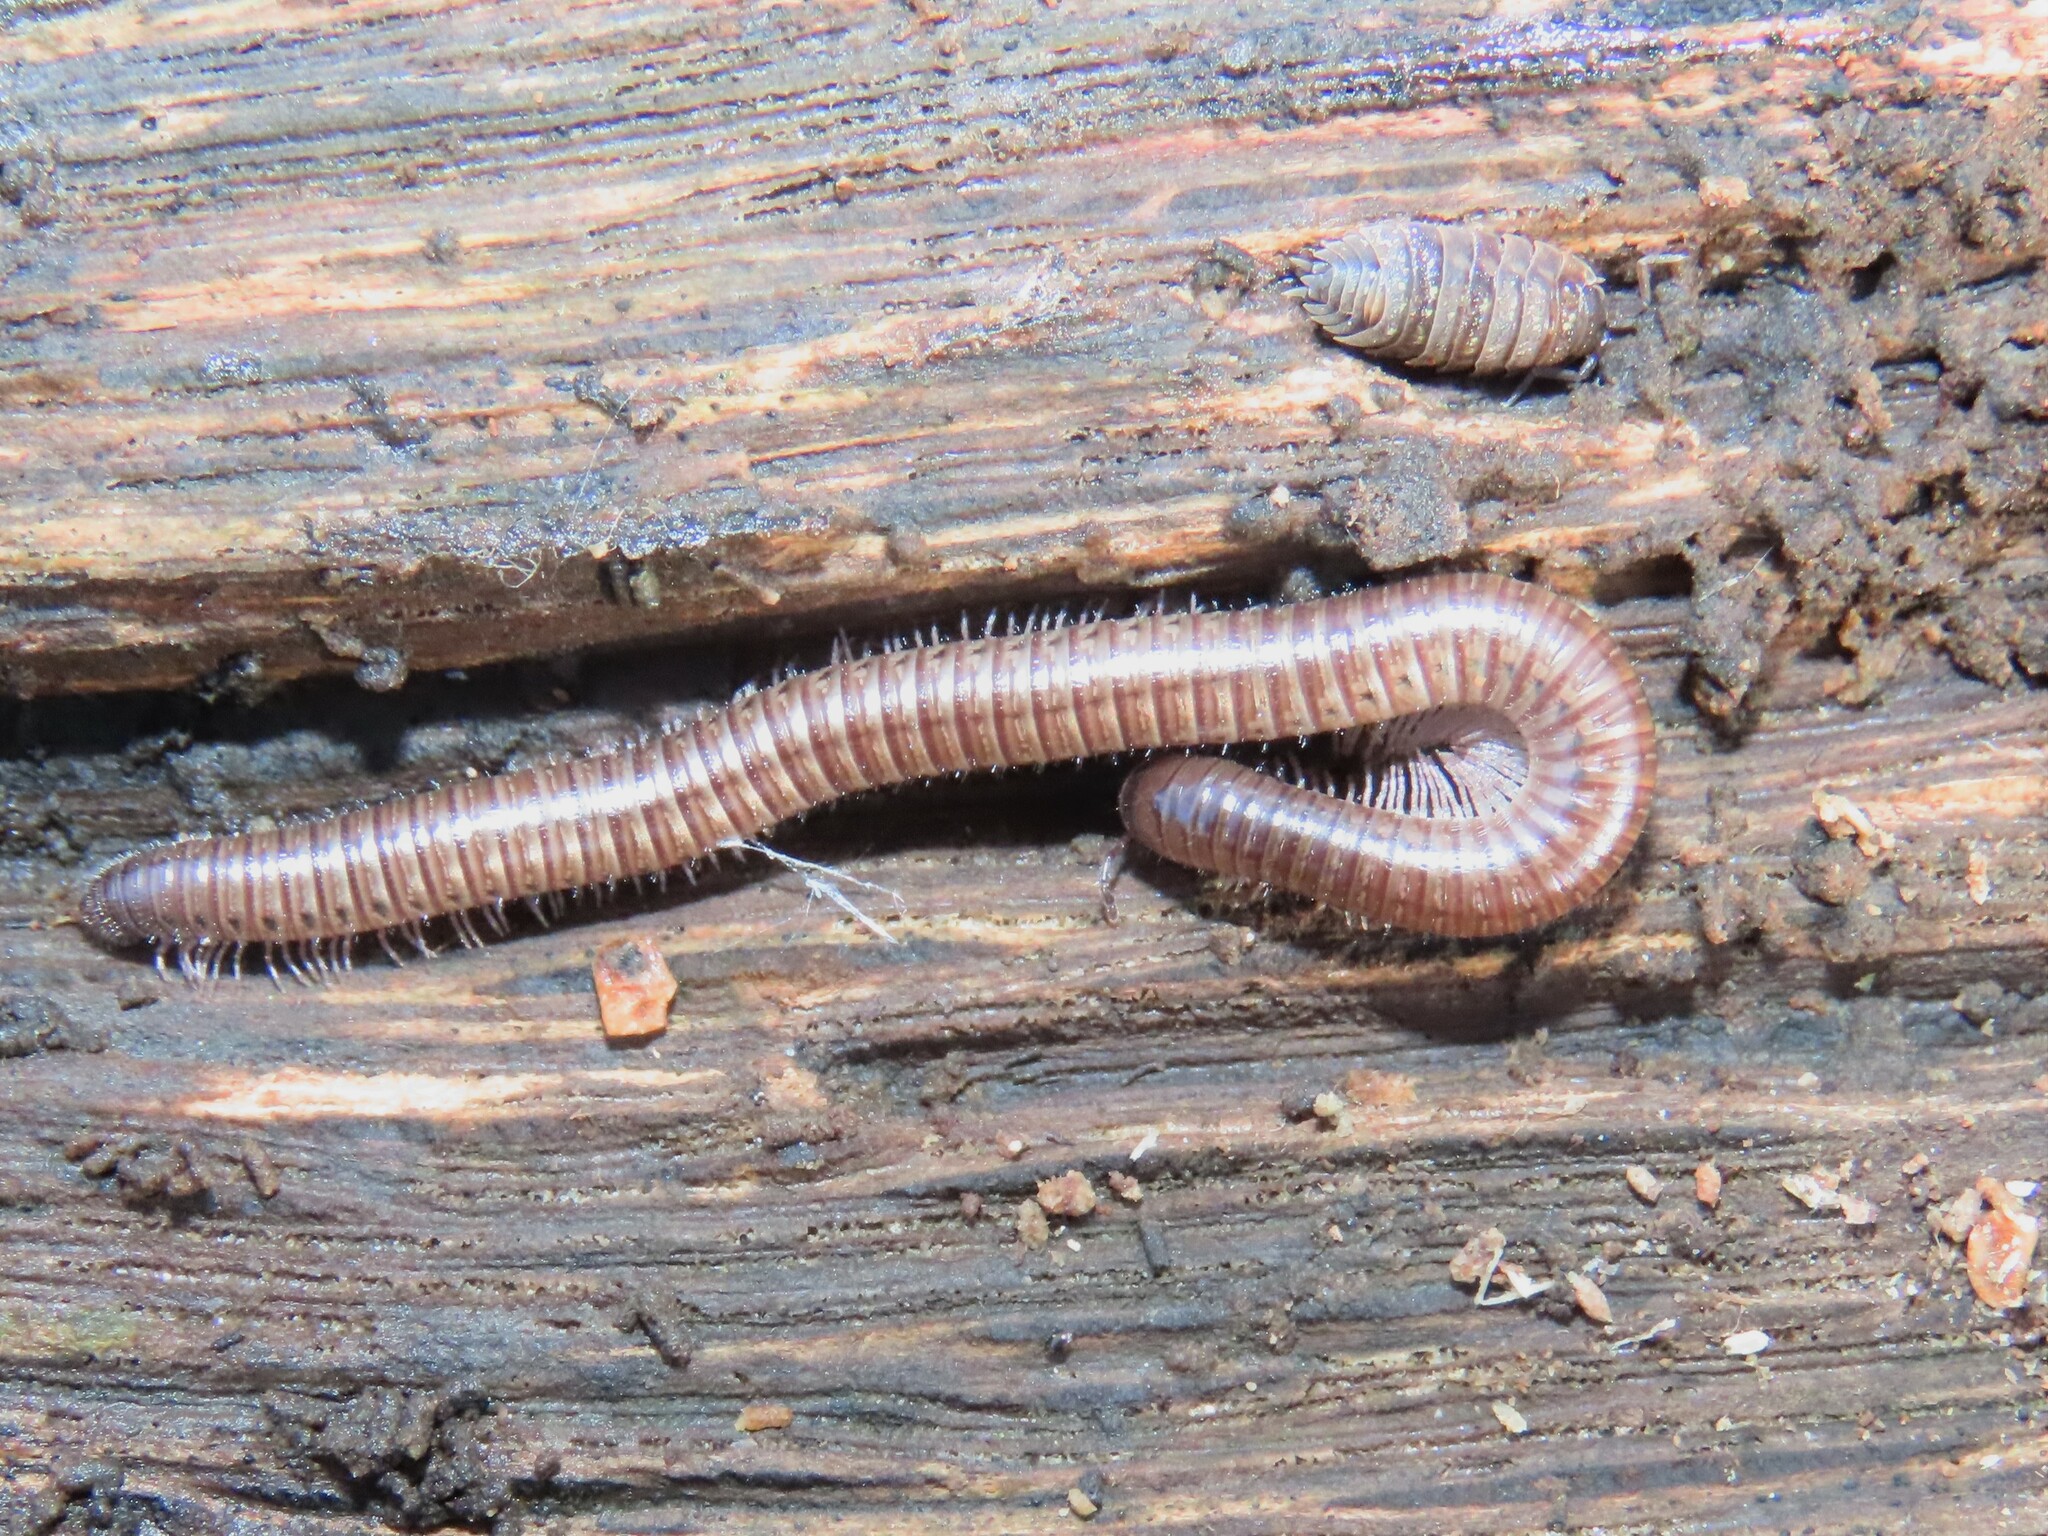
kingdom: Animalia
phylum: Arthropoda
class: Diplopoda
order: Julida
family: Parajulidae
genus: Ptyoiulus
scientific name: Ptyoiulus impressus
